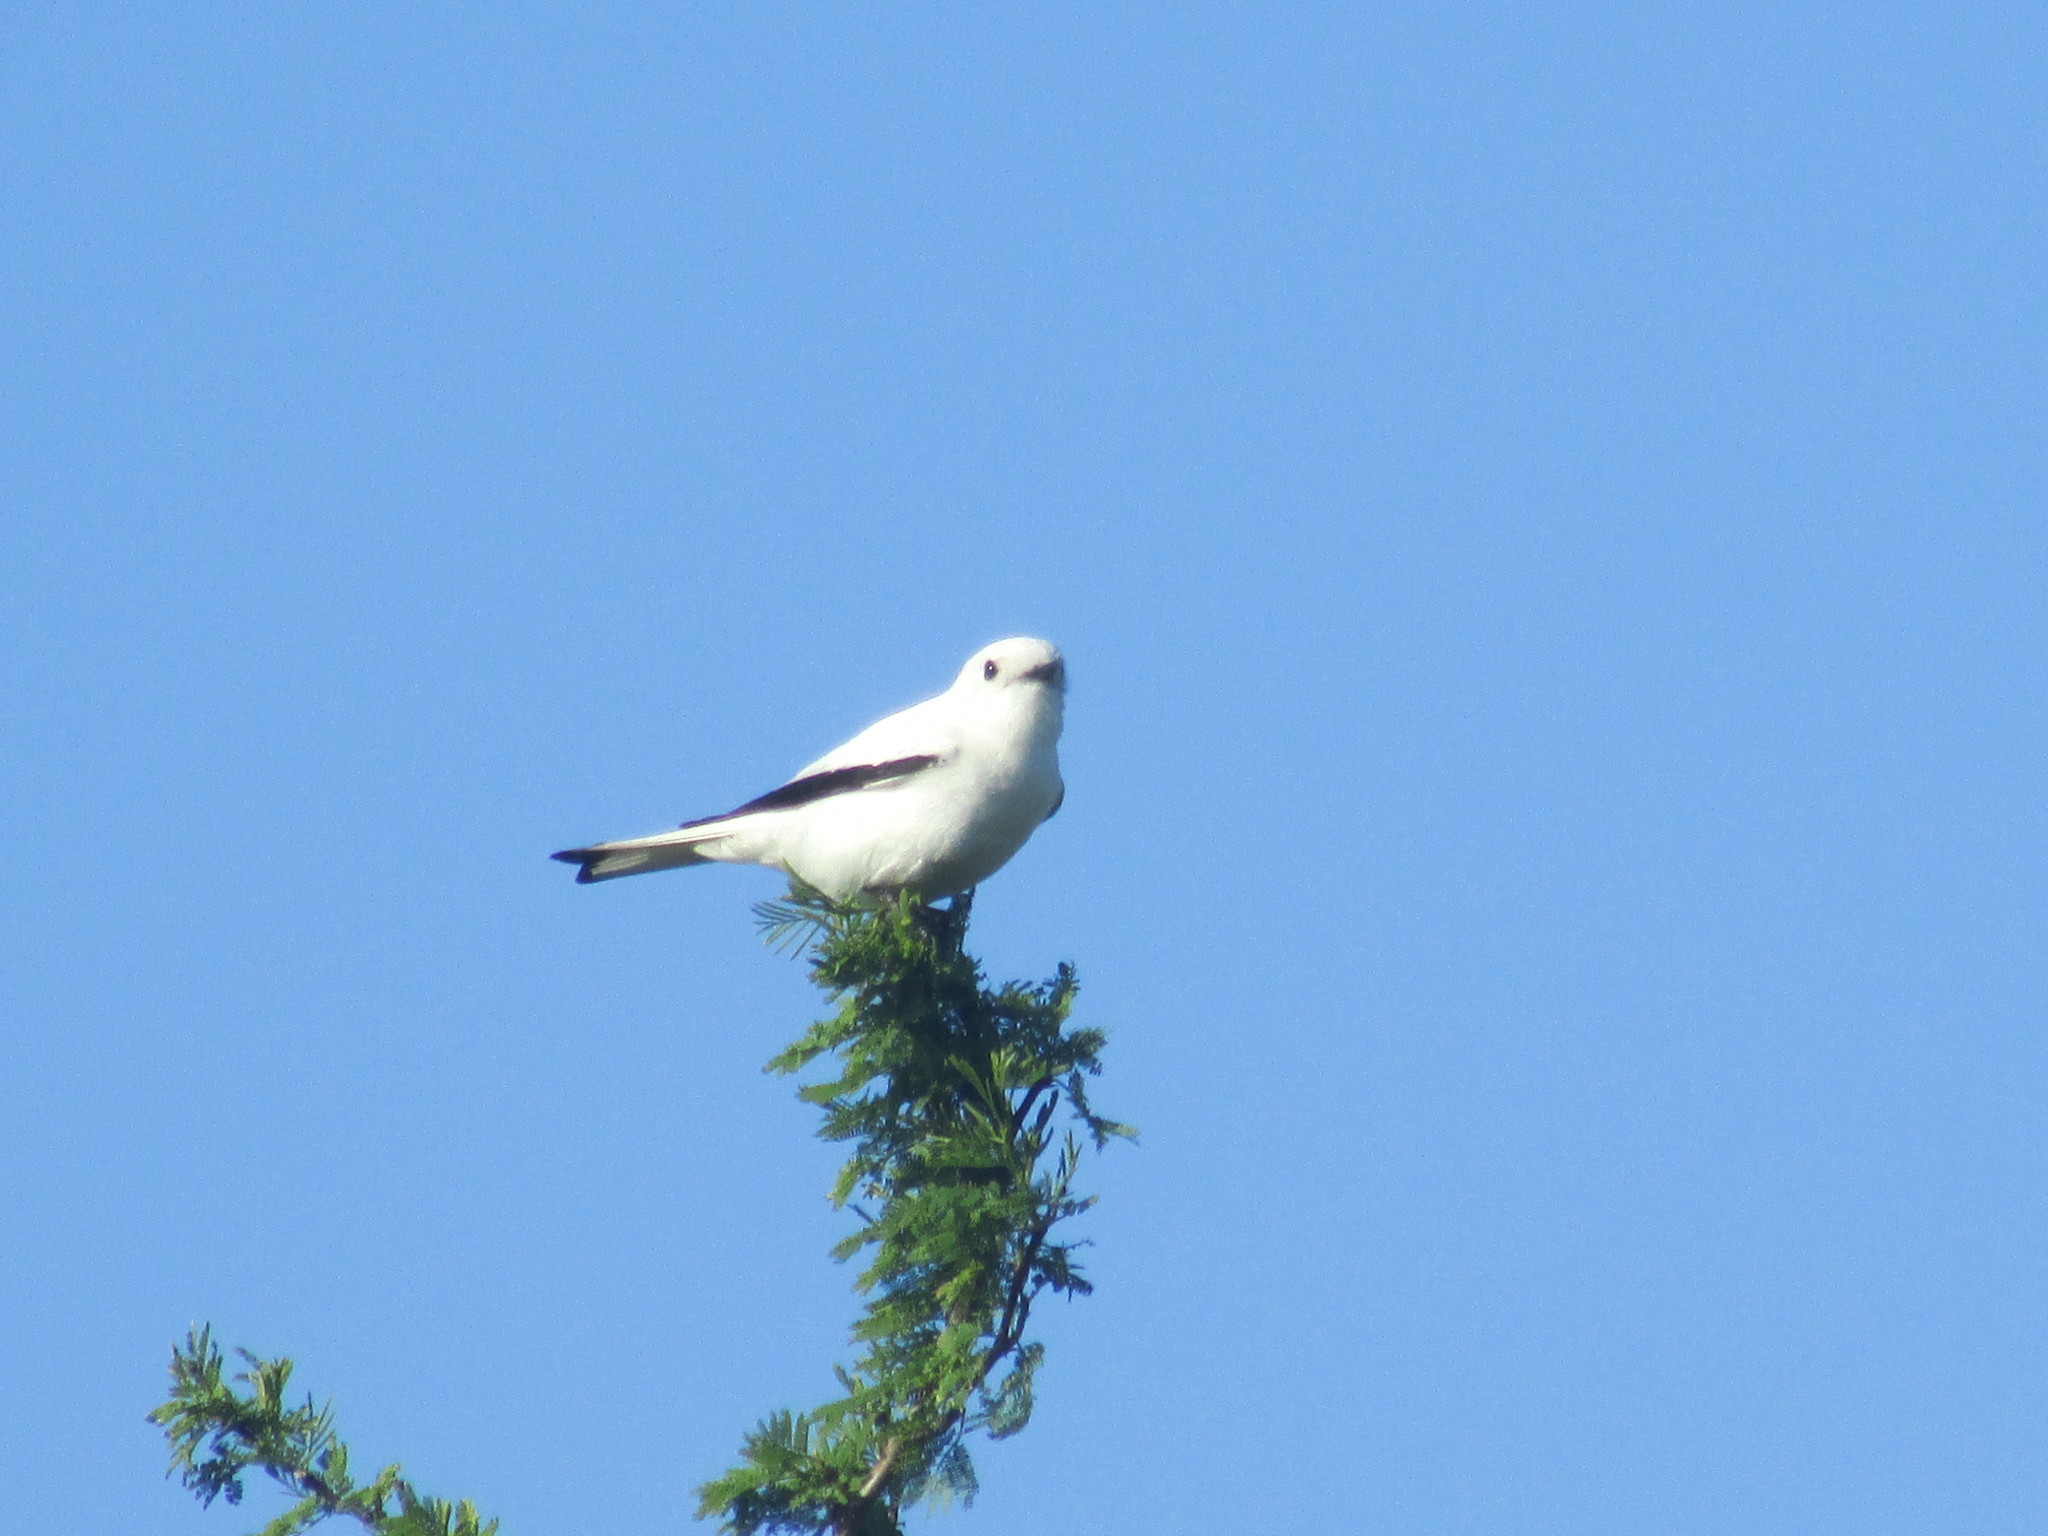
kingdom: Animalia
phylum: Chordata
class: Aves
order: Passeriformes
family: Tyrannidae
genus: Xolmis
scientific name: Xolmis irupero
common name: White monjita
